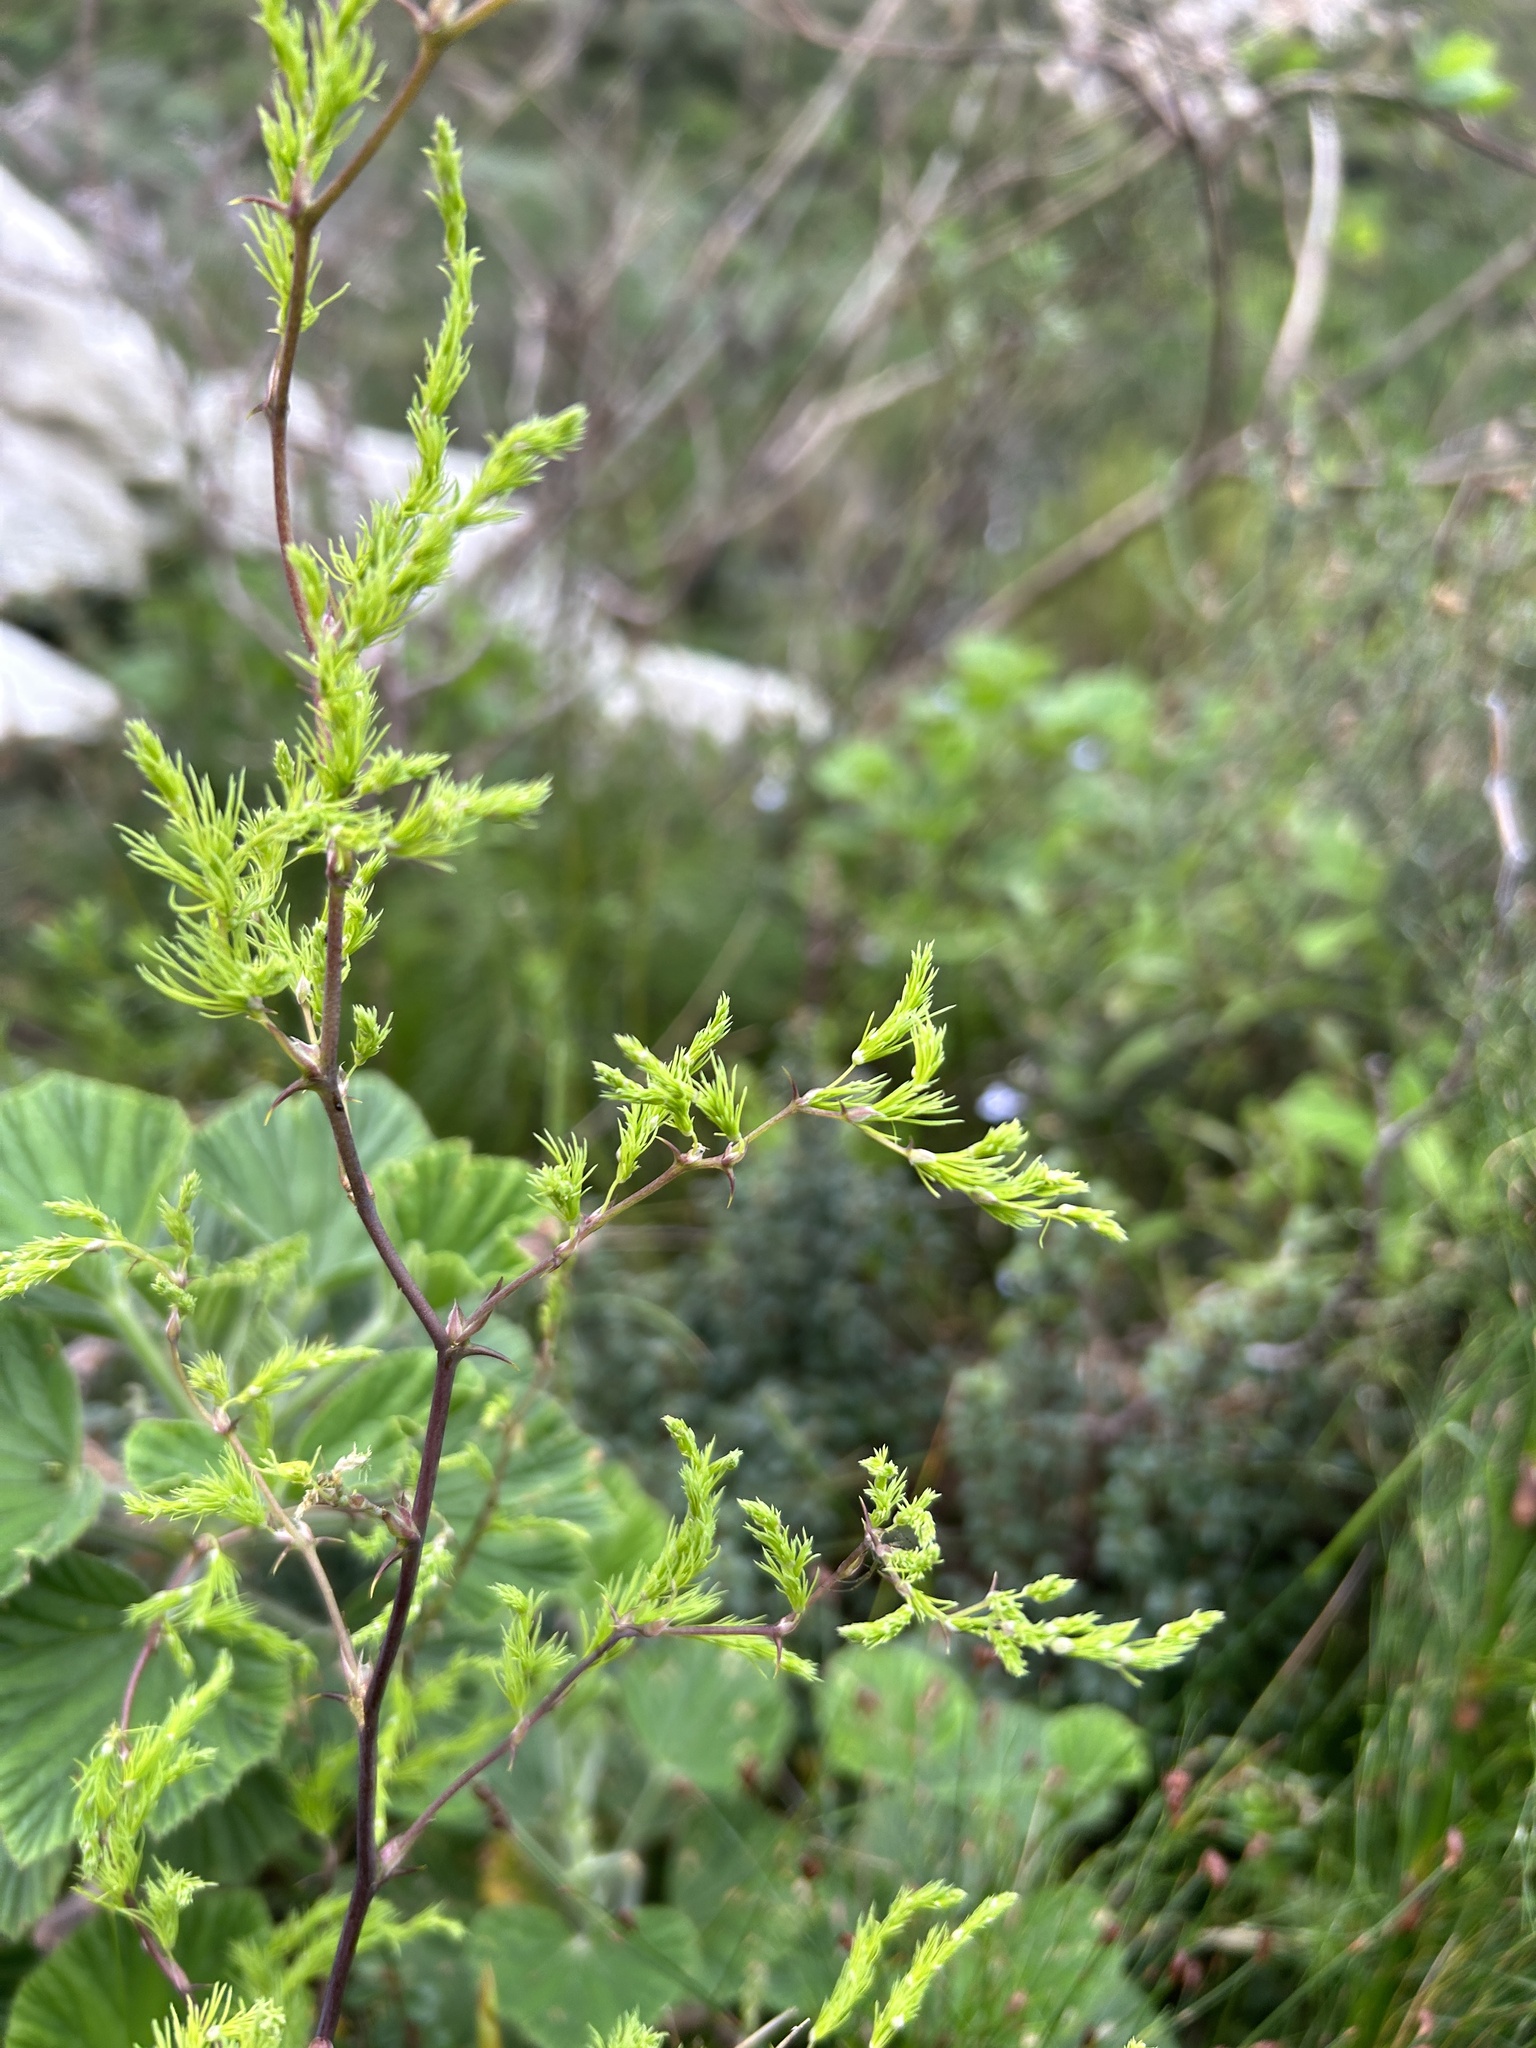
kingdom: Plantae
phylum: Tracheophyta
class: Liliopsida
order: Asparagales
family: Asparagaceae
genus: Asparagus
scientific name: Asparagus rubicundus
